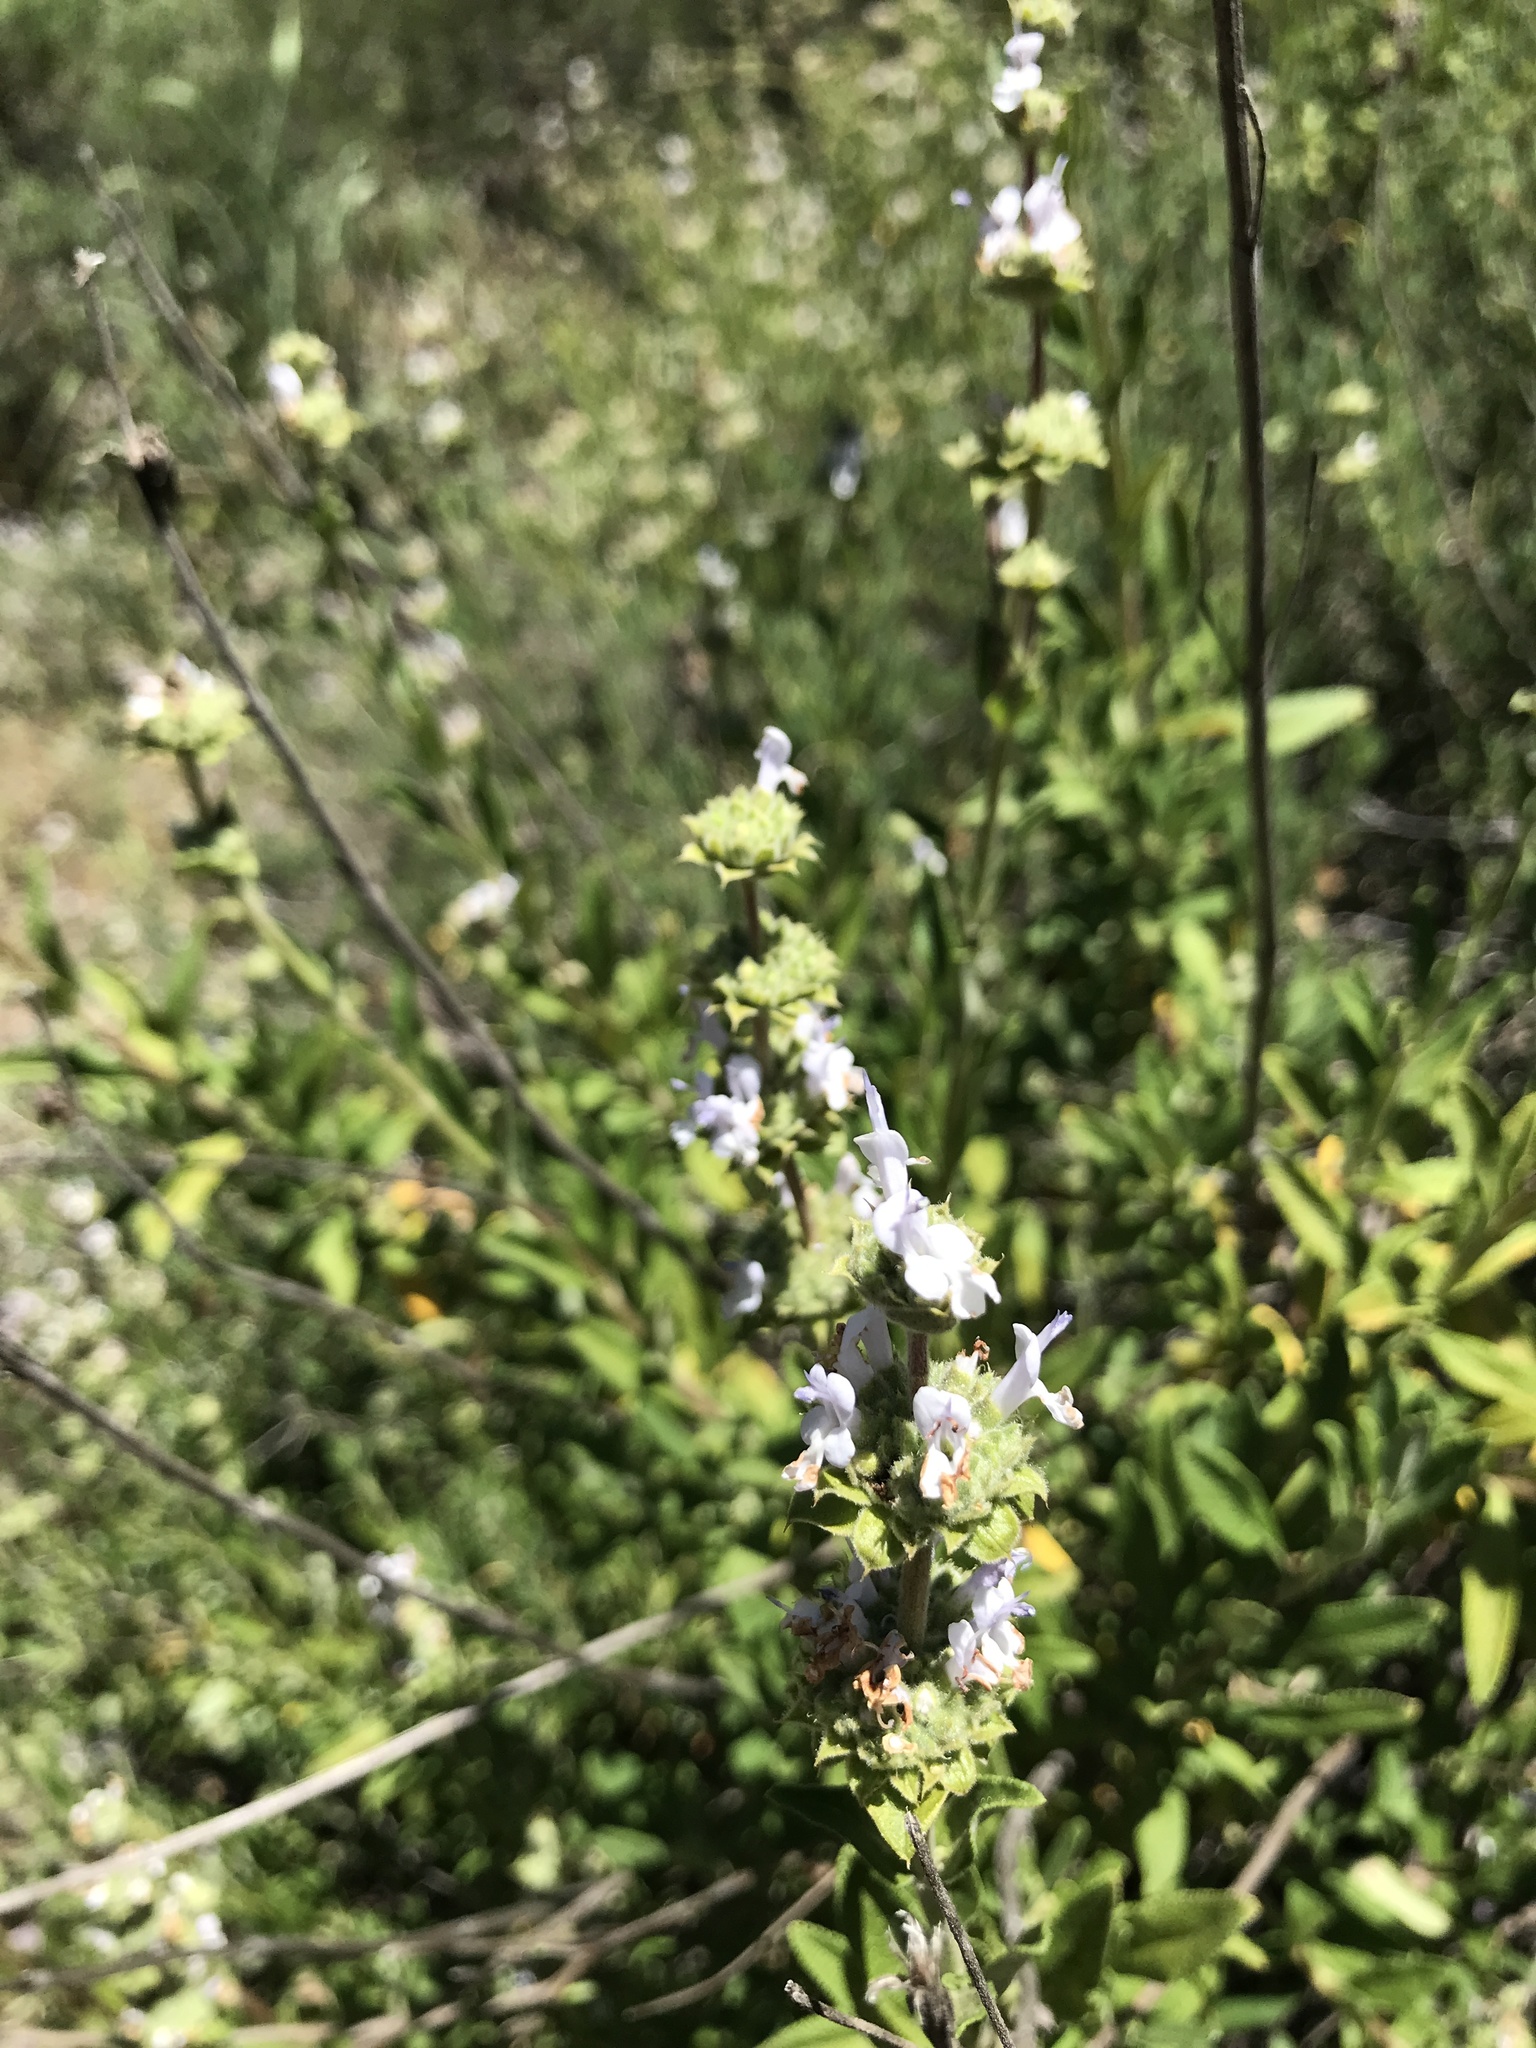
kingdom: Plantae
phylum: Tracheophyta
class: Magnoliopsida
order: Lamiales
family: Lamiaceae
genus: Salvia
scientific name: Salvia mellifera
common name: Black sage
